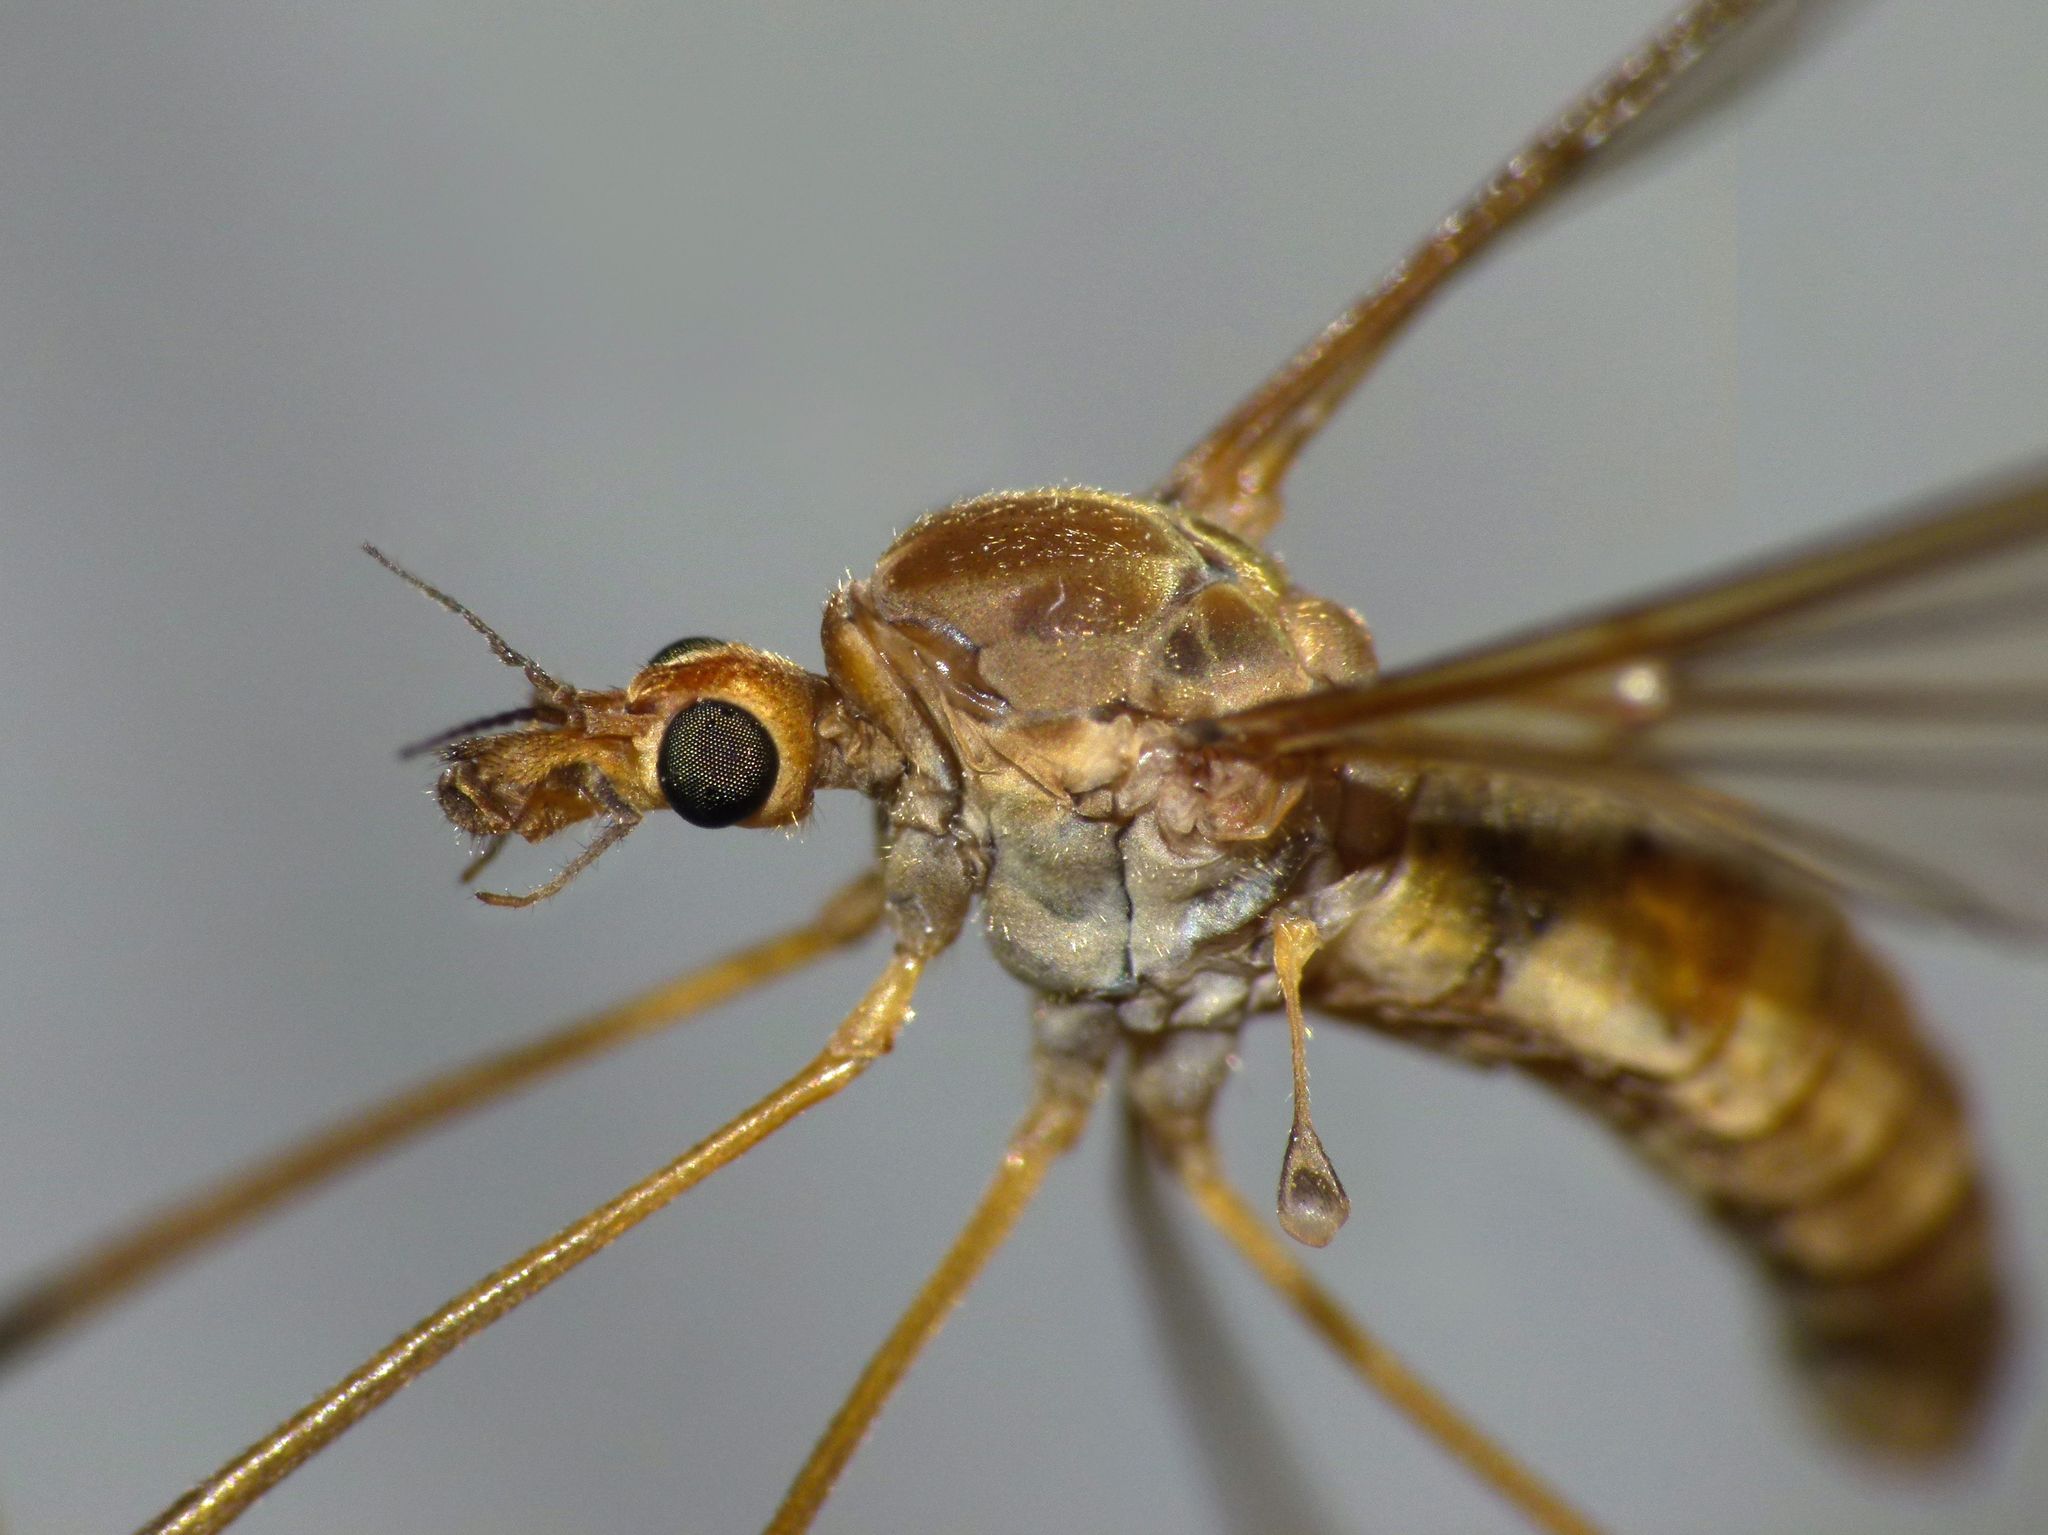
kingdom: Animalia
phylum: Arthropoda
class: Insecta
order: Diptera
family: Tipulidae
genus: Leptotarsus
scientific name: Leptotarsus dichroithorax
